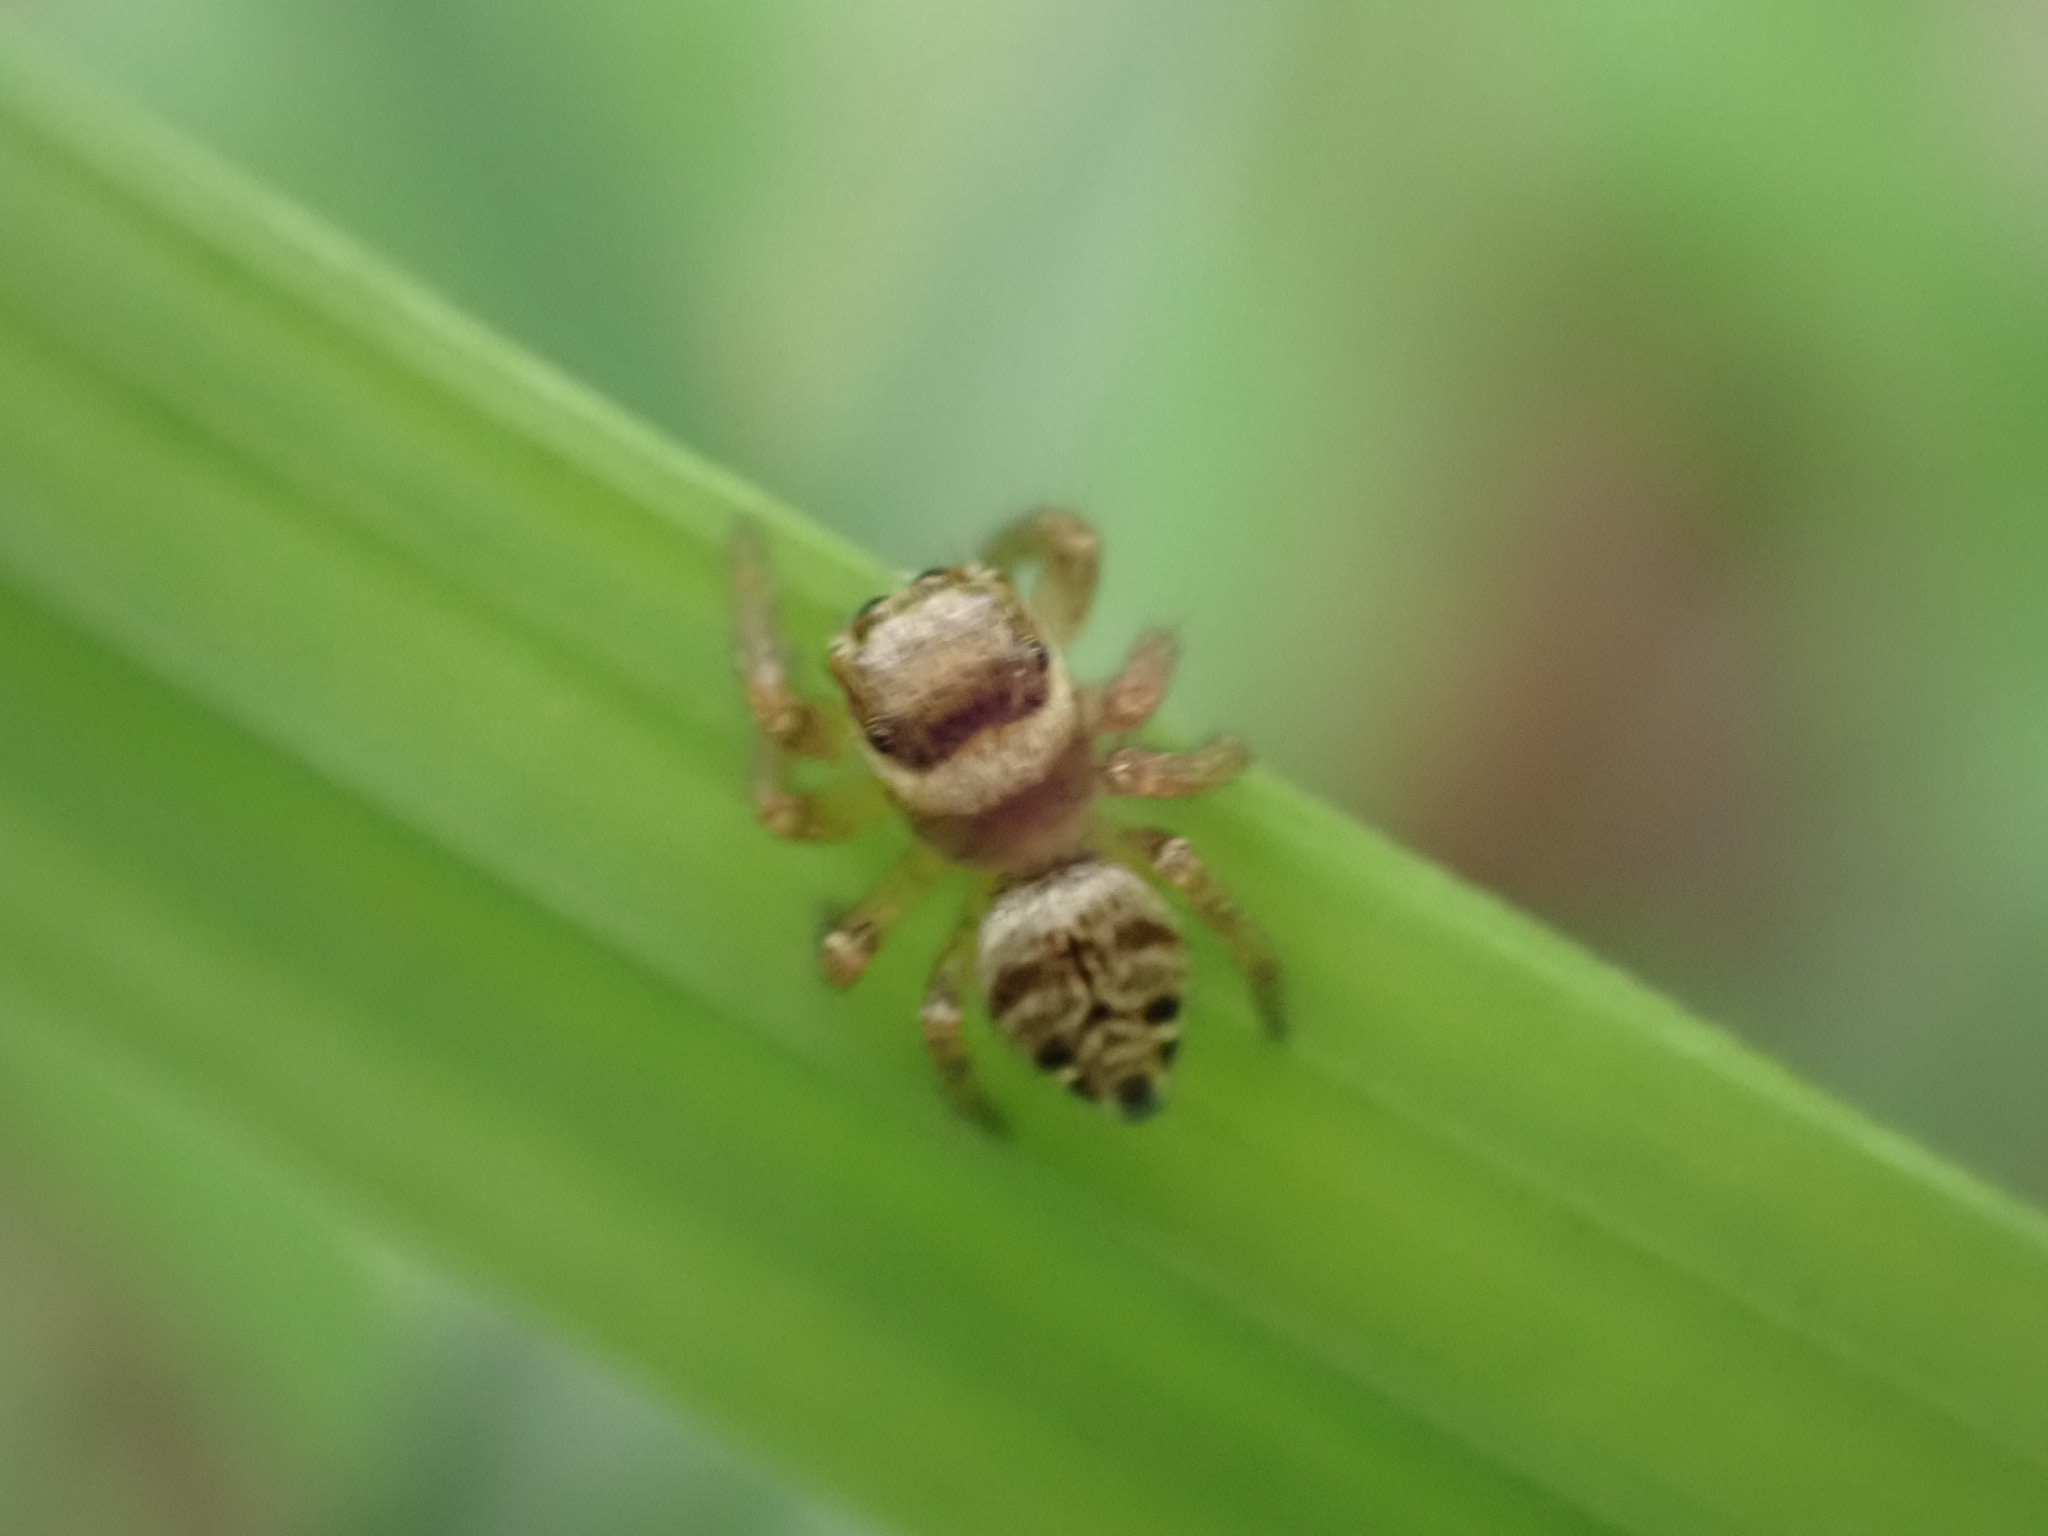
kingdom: Animalia
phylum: Arthropoda
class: Arachnida
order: Araneae
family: Salticidae
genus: Heliophanus
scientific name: Heliophanus tribulosus
